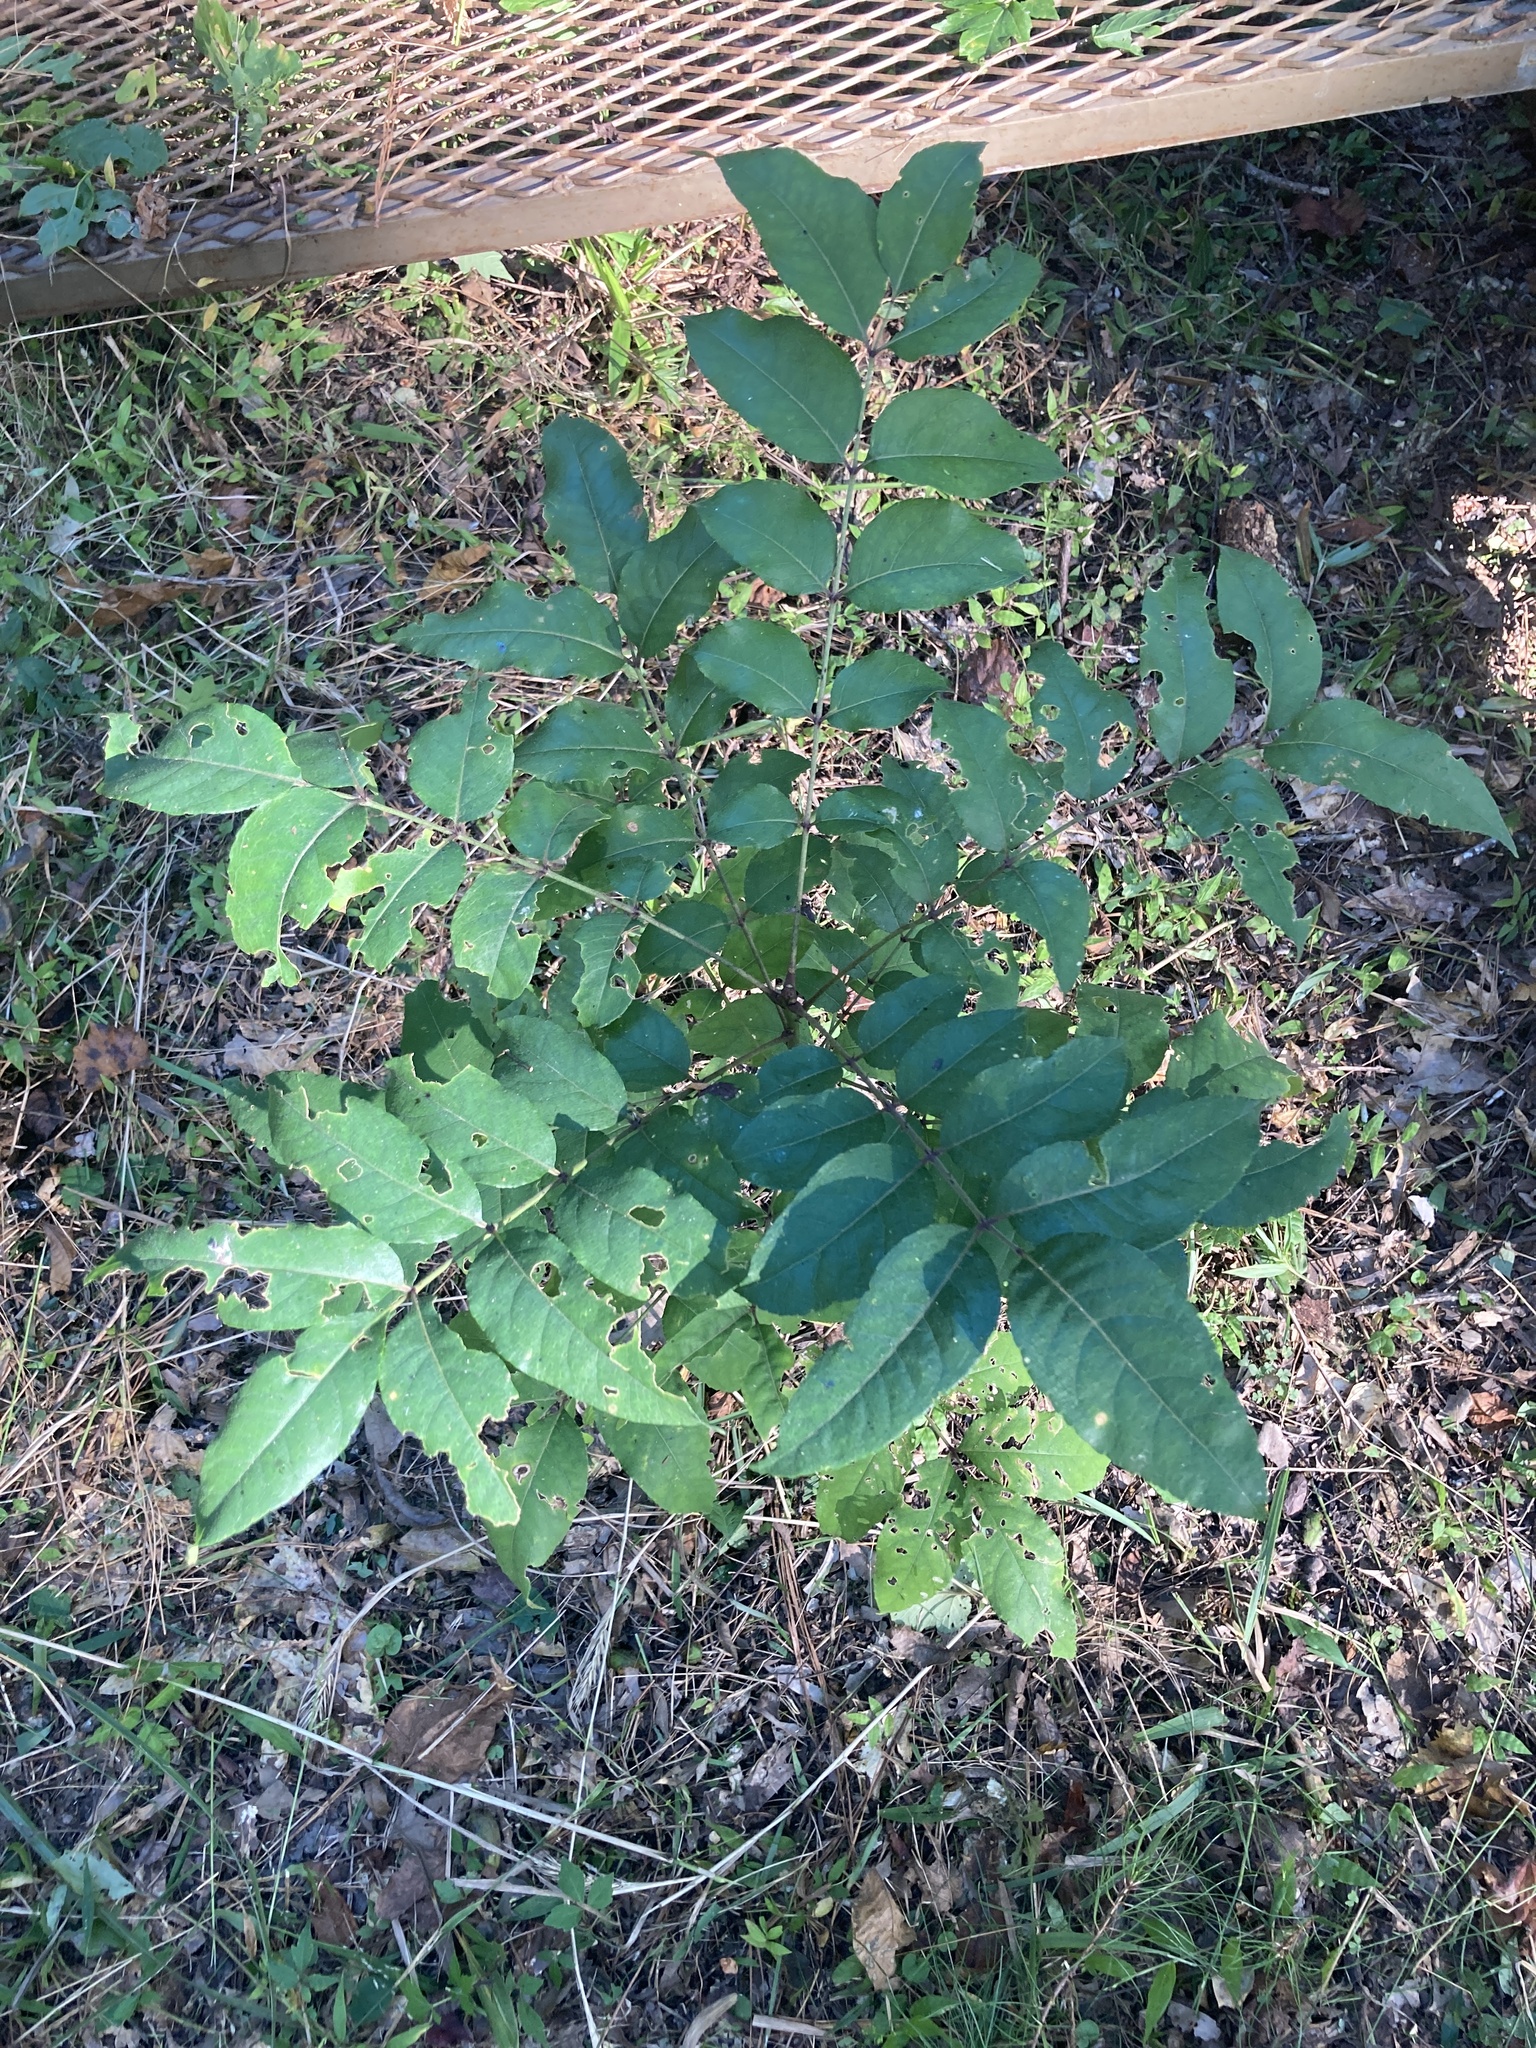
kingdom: Plantae
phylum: Tracheophyta
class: Magnoliopsida
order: Sapindales
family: Rutaceae
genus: Zanthoxylum
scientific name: Zanthoxylum clava-herculis
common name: Hercules'-club
